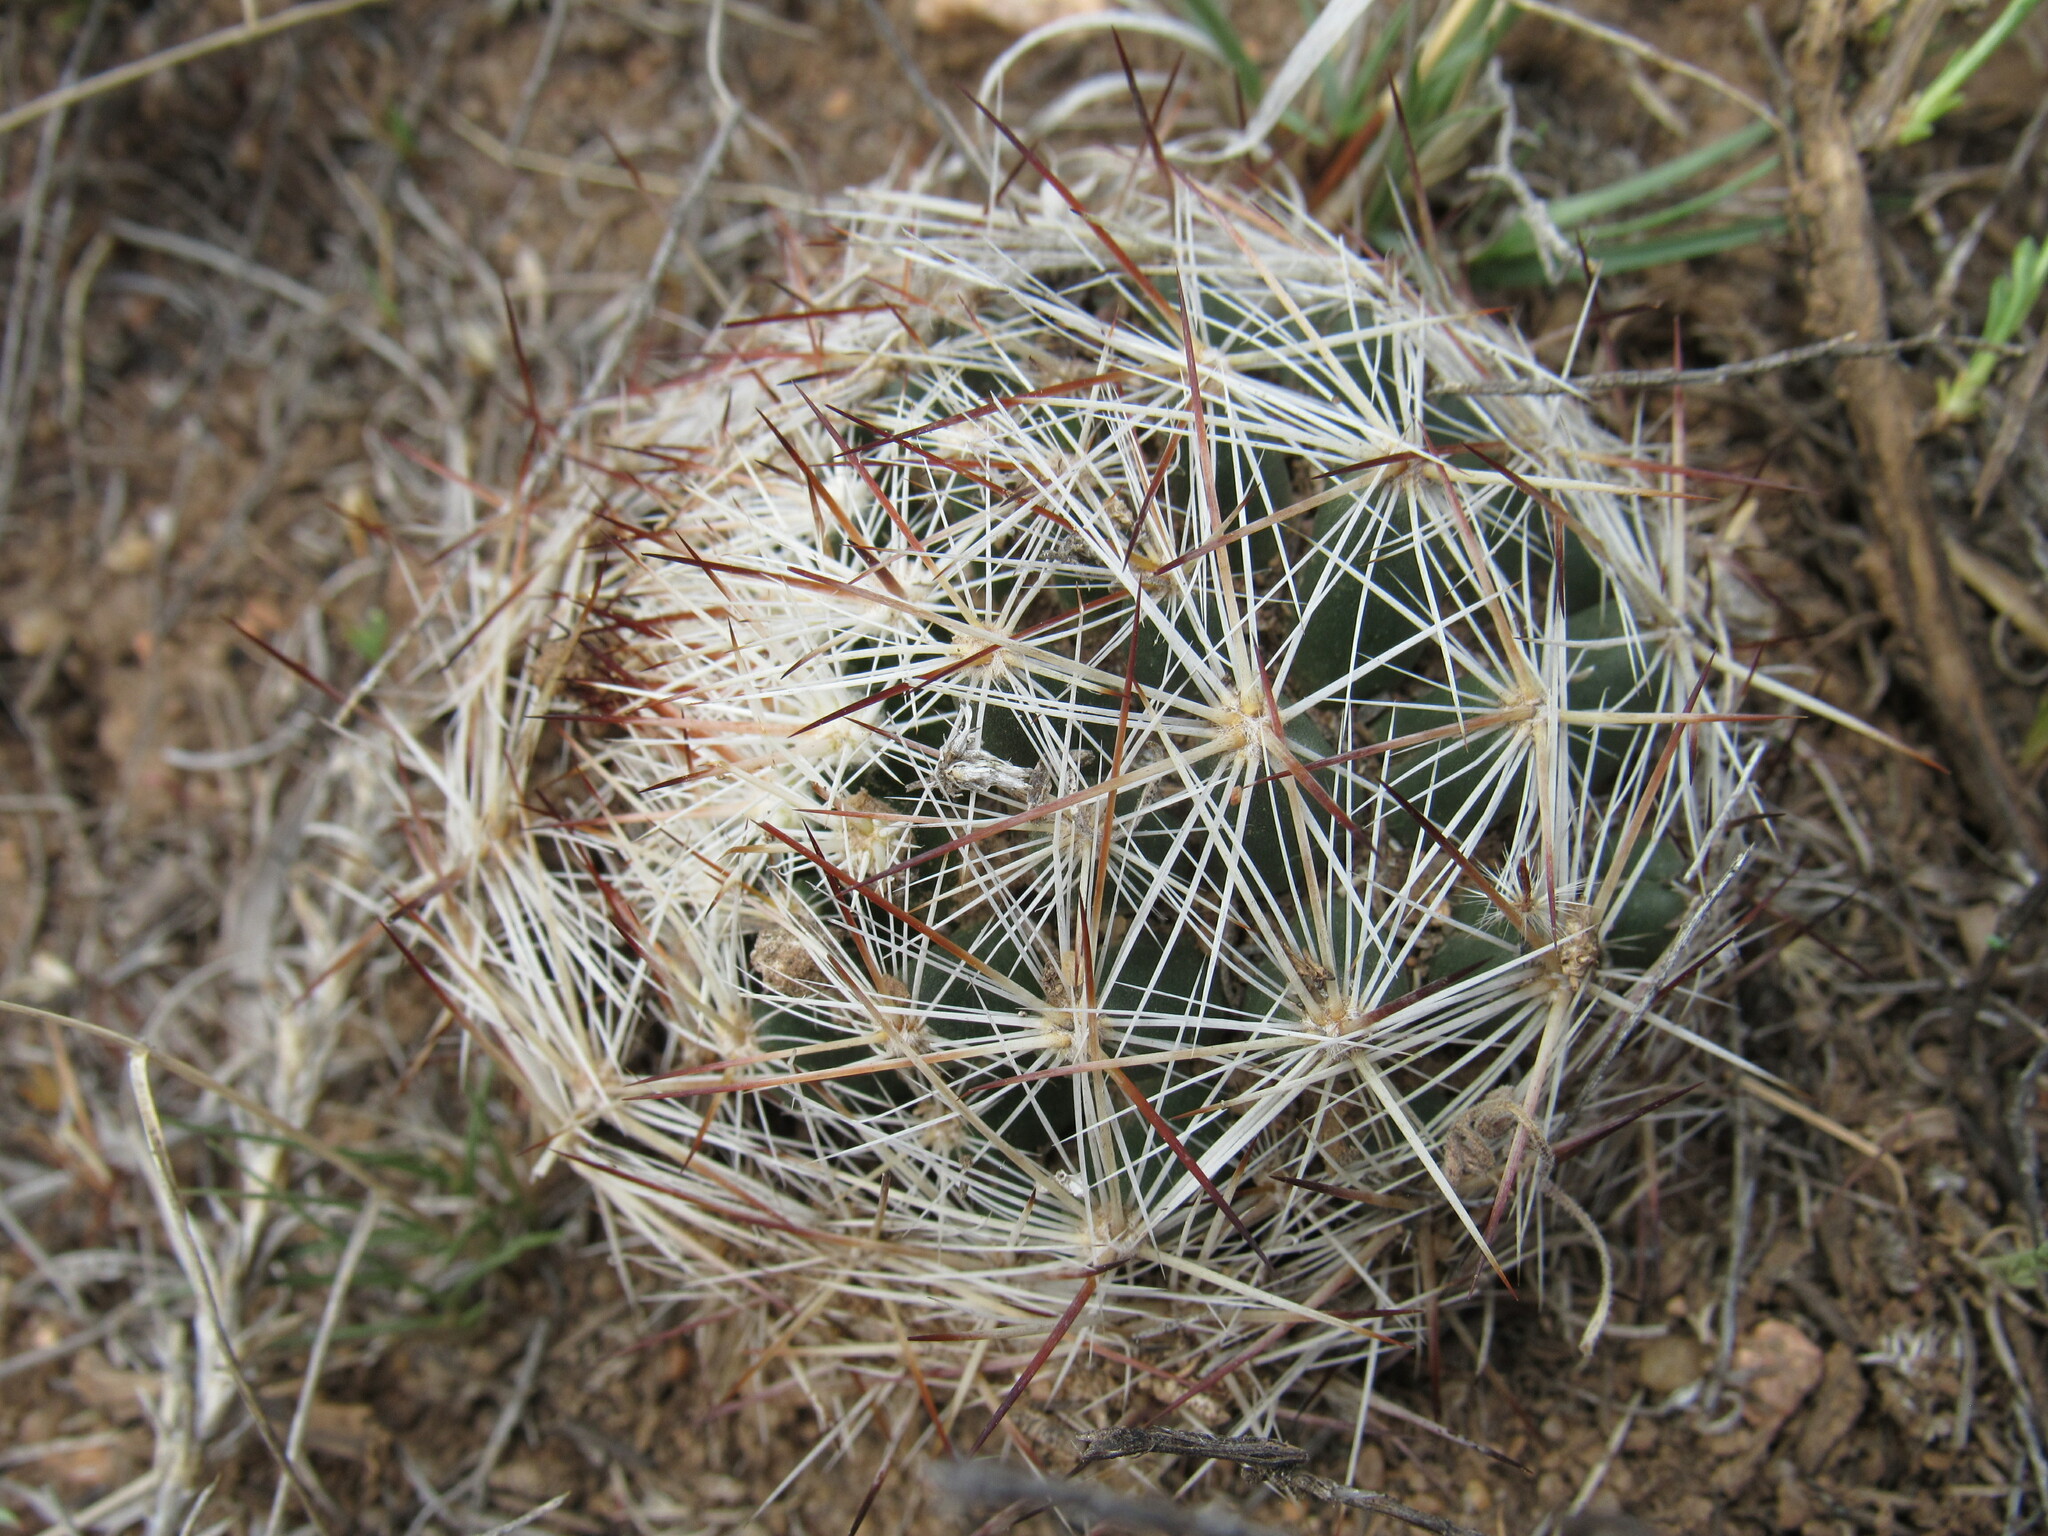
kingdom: Plantae
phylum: Tracheophyta
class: Magnoliopsida
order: Caryophyllales
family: Cactaceae
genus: Pelecyphora
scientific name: Pelecyphora vivipara
